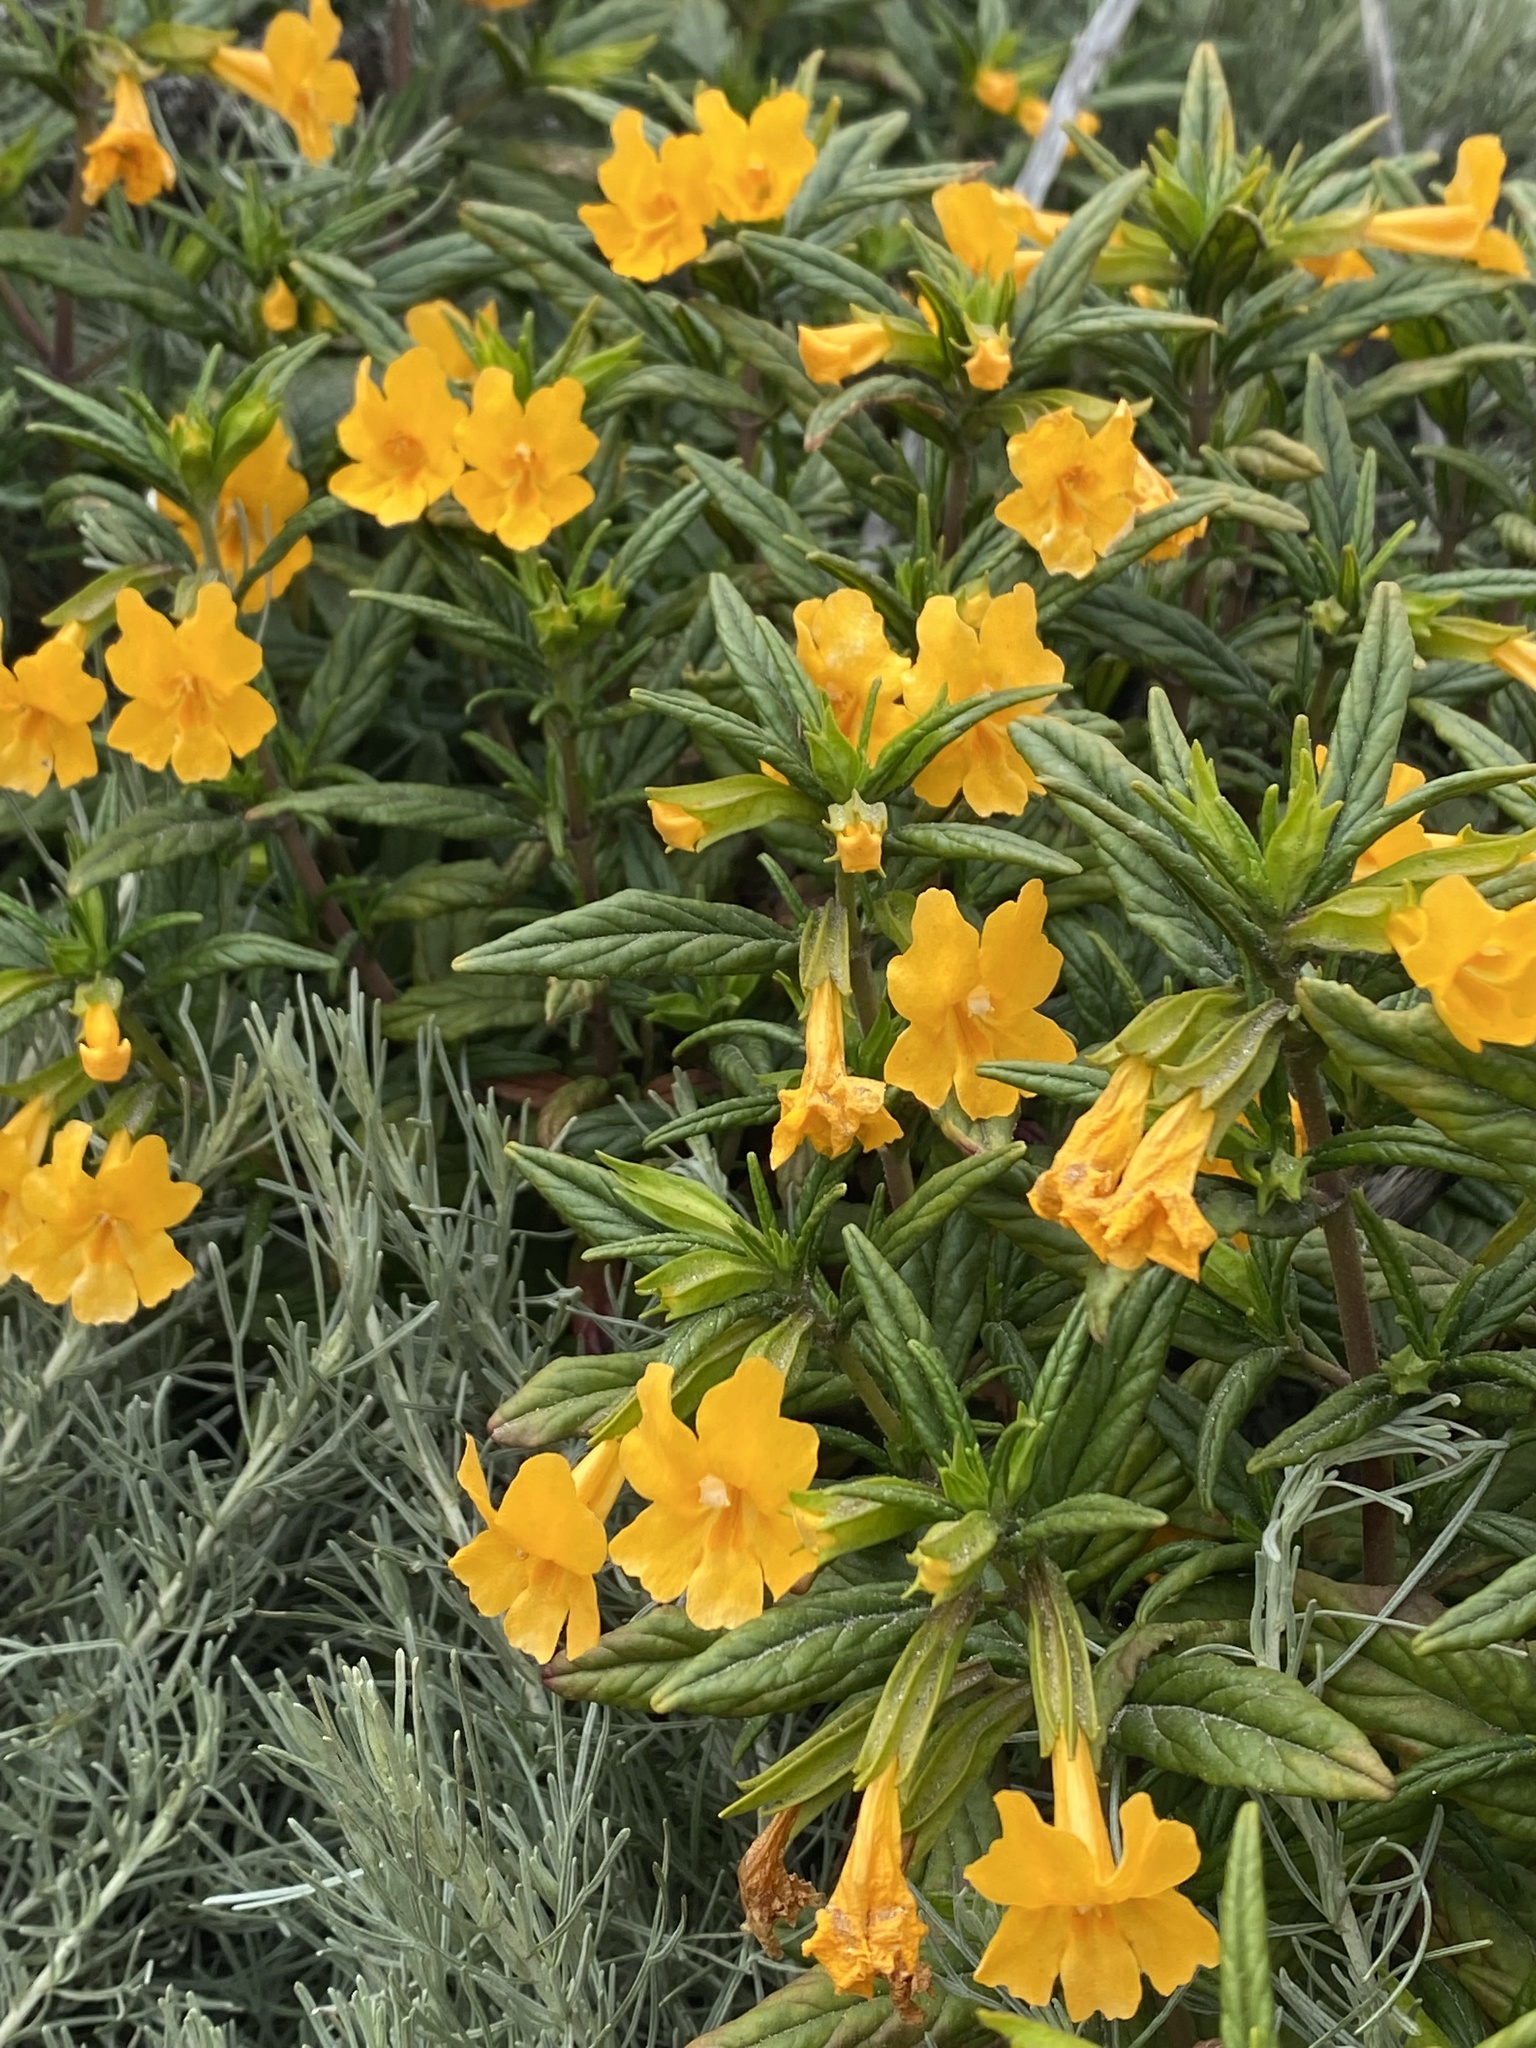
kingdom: Plantae
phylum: Tracheophyta
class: Magnoliopsida
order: Lamiales
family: Phrymaceae
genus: Diplacus
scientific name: Diplacus aurantiacus
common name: Bush monkey-flower
